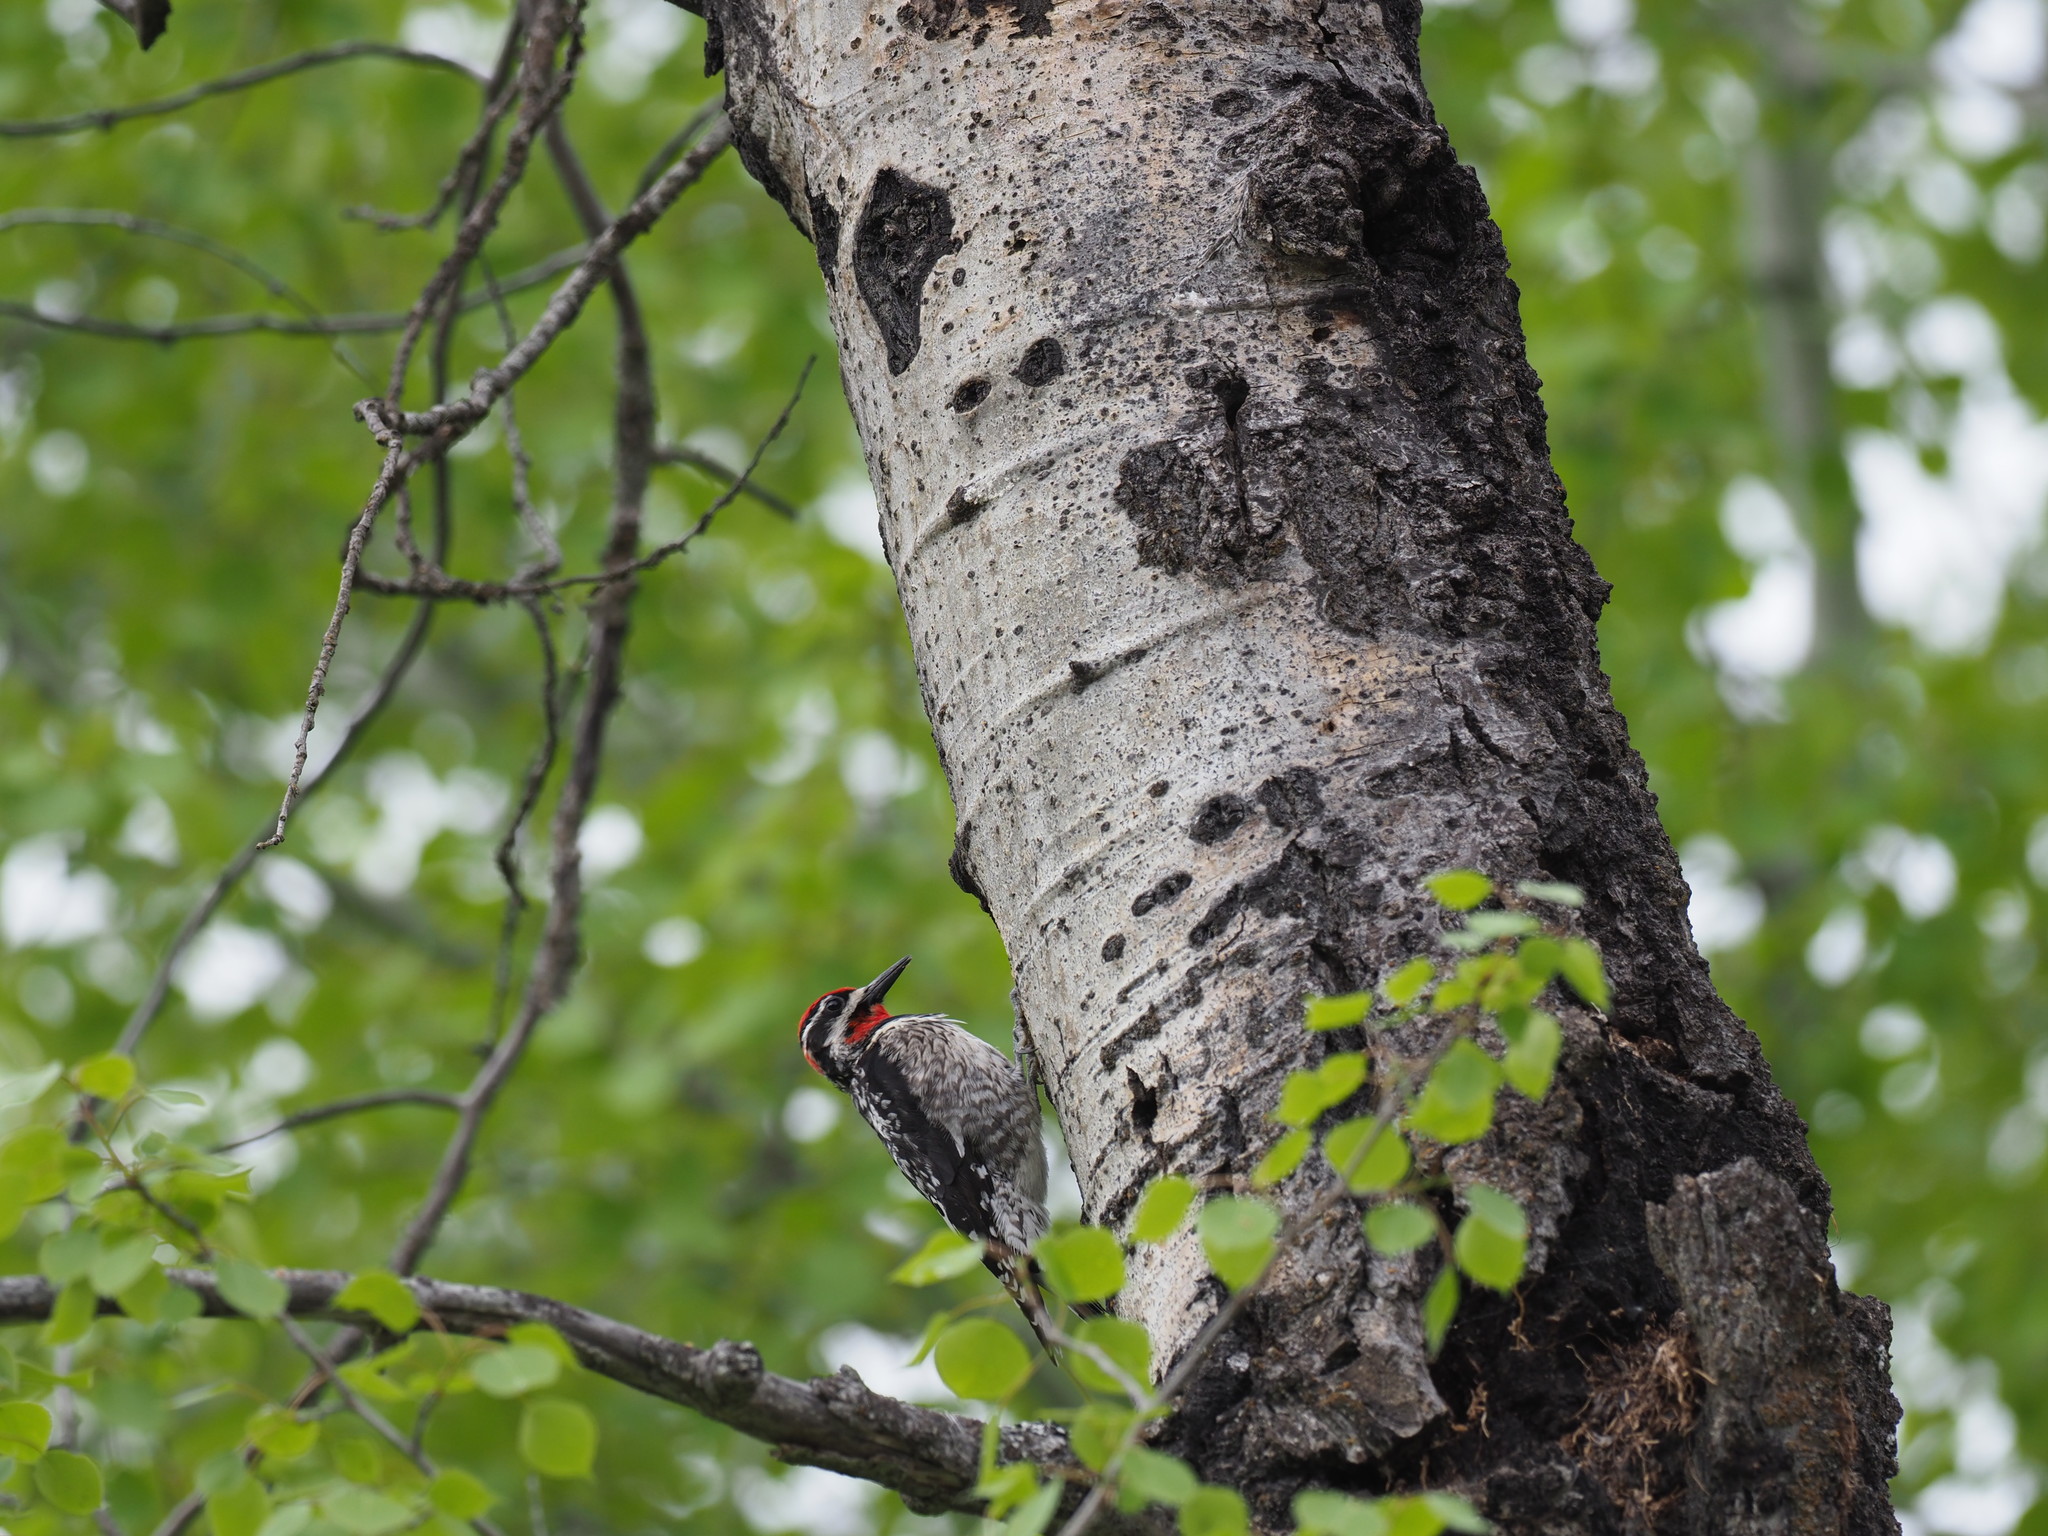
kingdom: Animalia
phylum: Chordata
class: Aves
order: Piciformes
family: Picidae
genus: Sphyrapicus
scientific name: Sphyrapicus nuchalis
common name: Red-naped sapsucker
